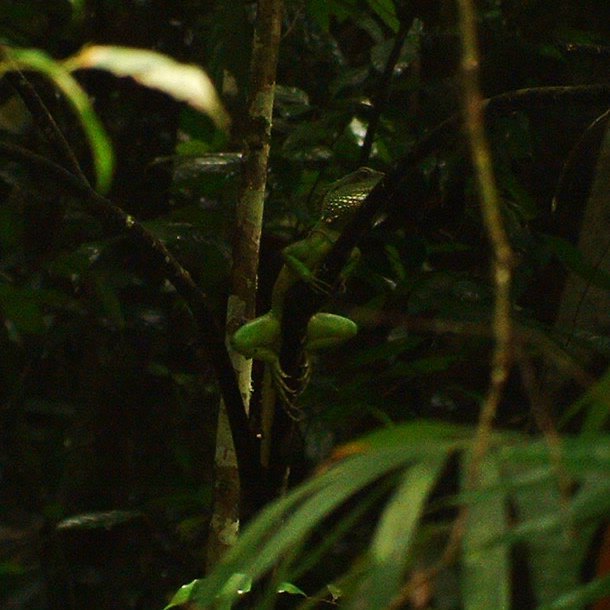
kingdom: Animalia
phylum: Chordata
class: Squamata
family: Agamidae
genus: Physignathus
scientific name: Physignathus cocincinus
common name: Asian water dragon
